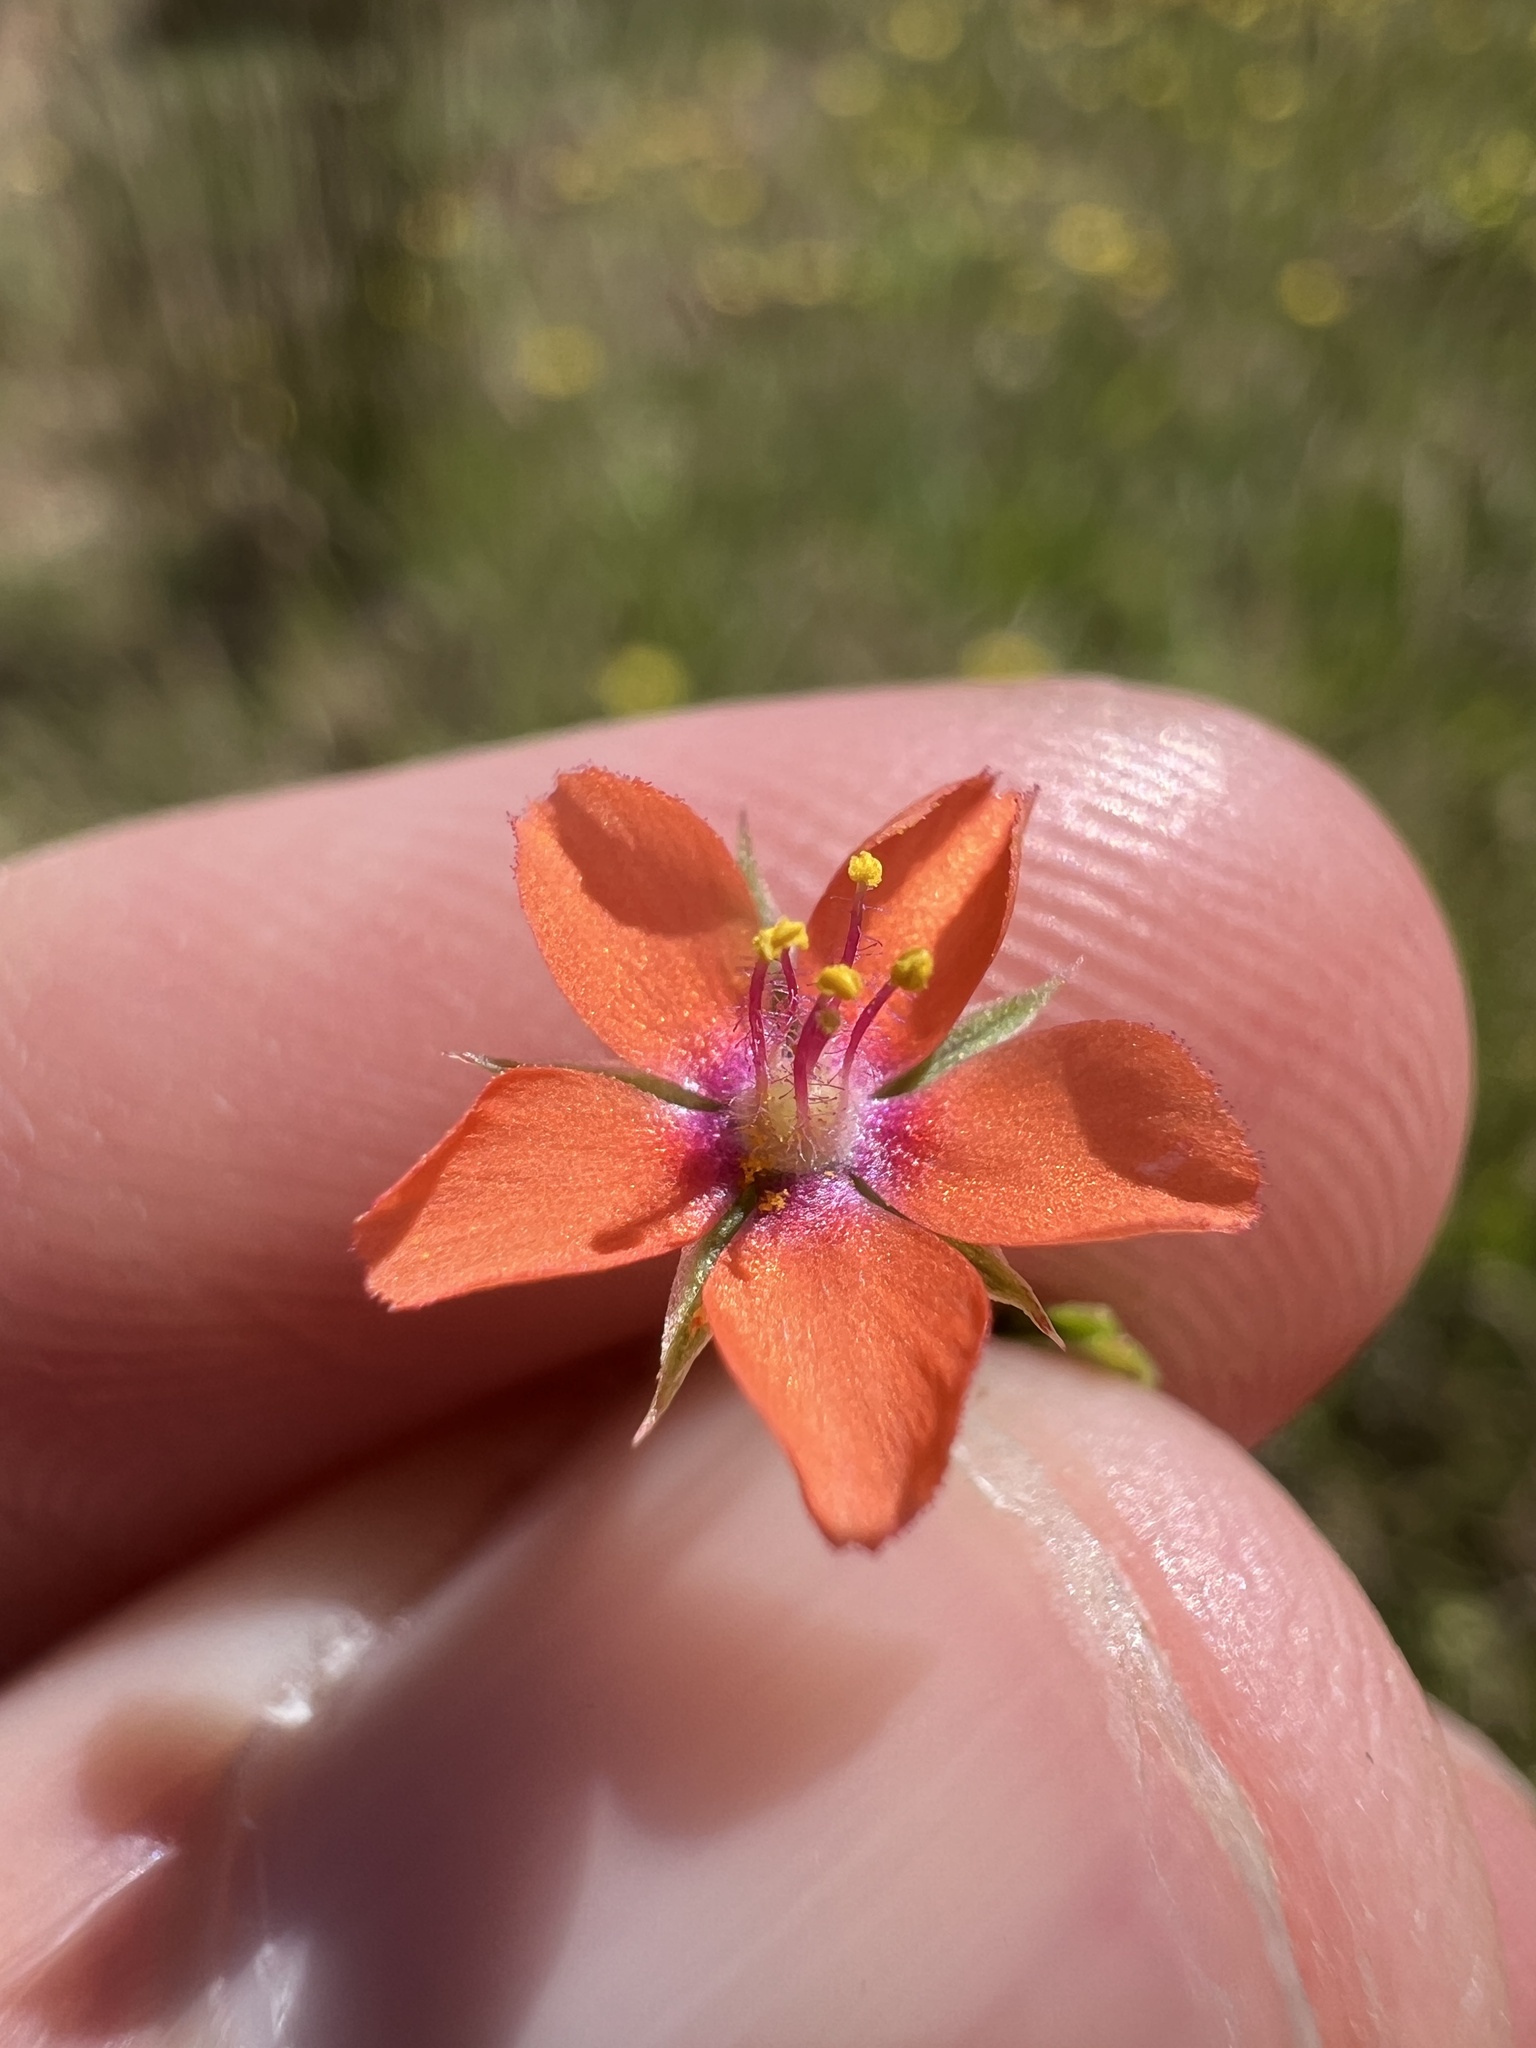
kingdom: Plantae
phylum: Tracheophyta
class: Magnoliopsida
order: Ericales
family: Primulaceae
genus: Lysimachia
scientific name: Lysimachia arvensis
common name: Scarlet pimpernel
